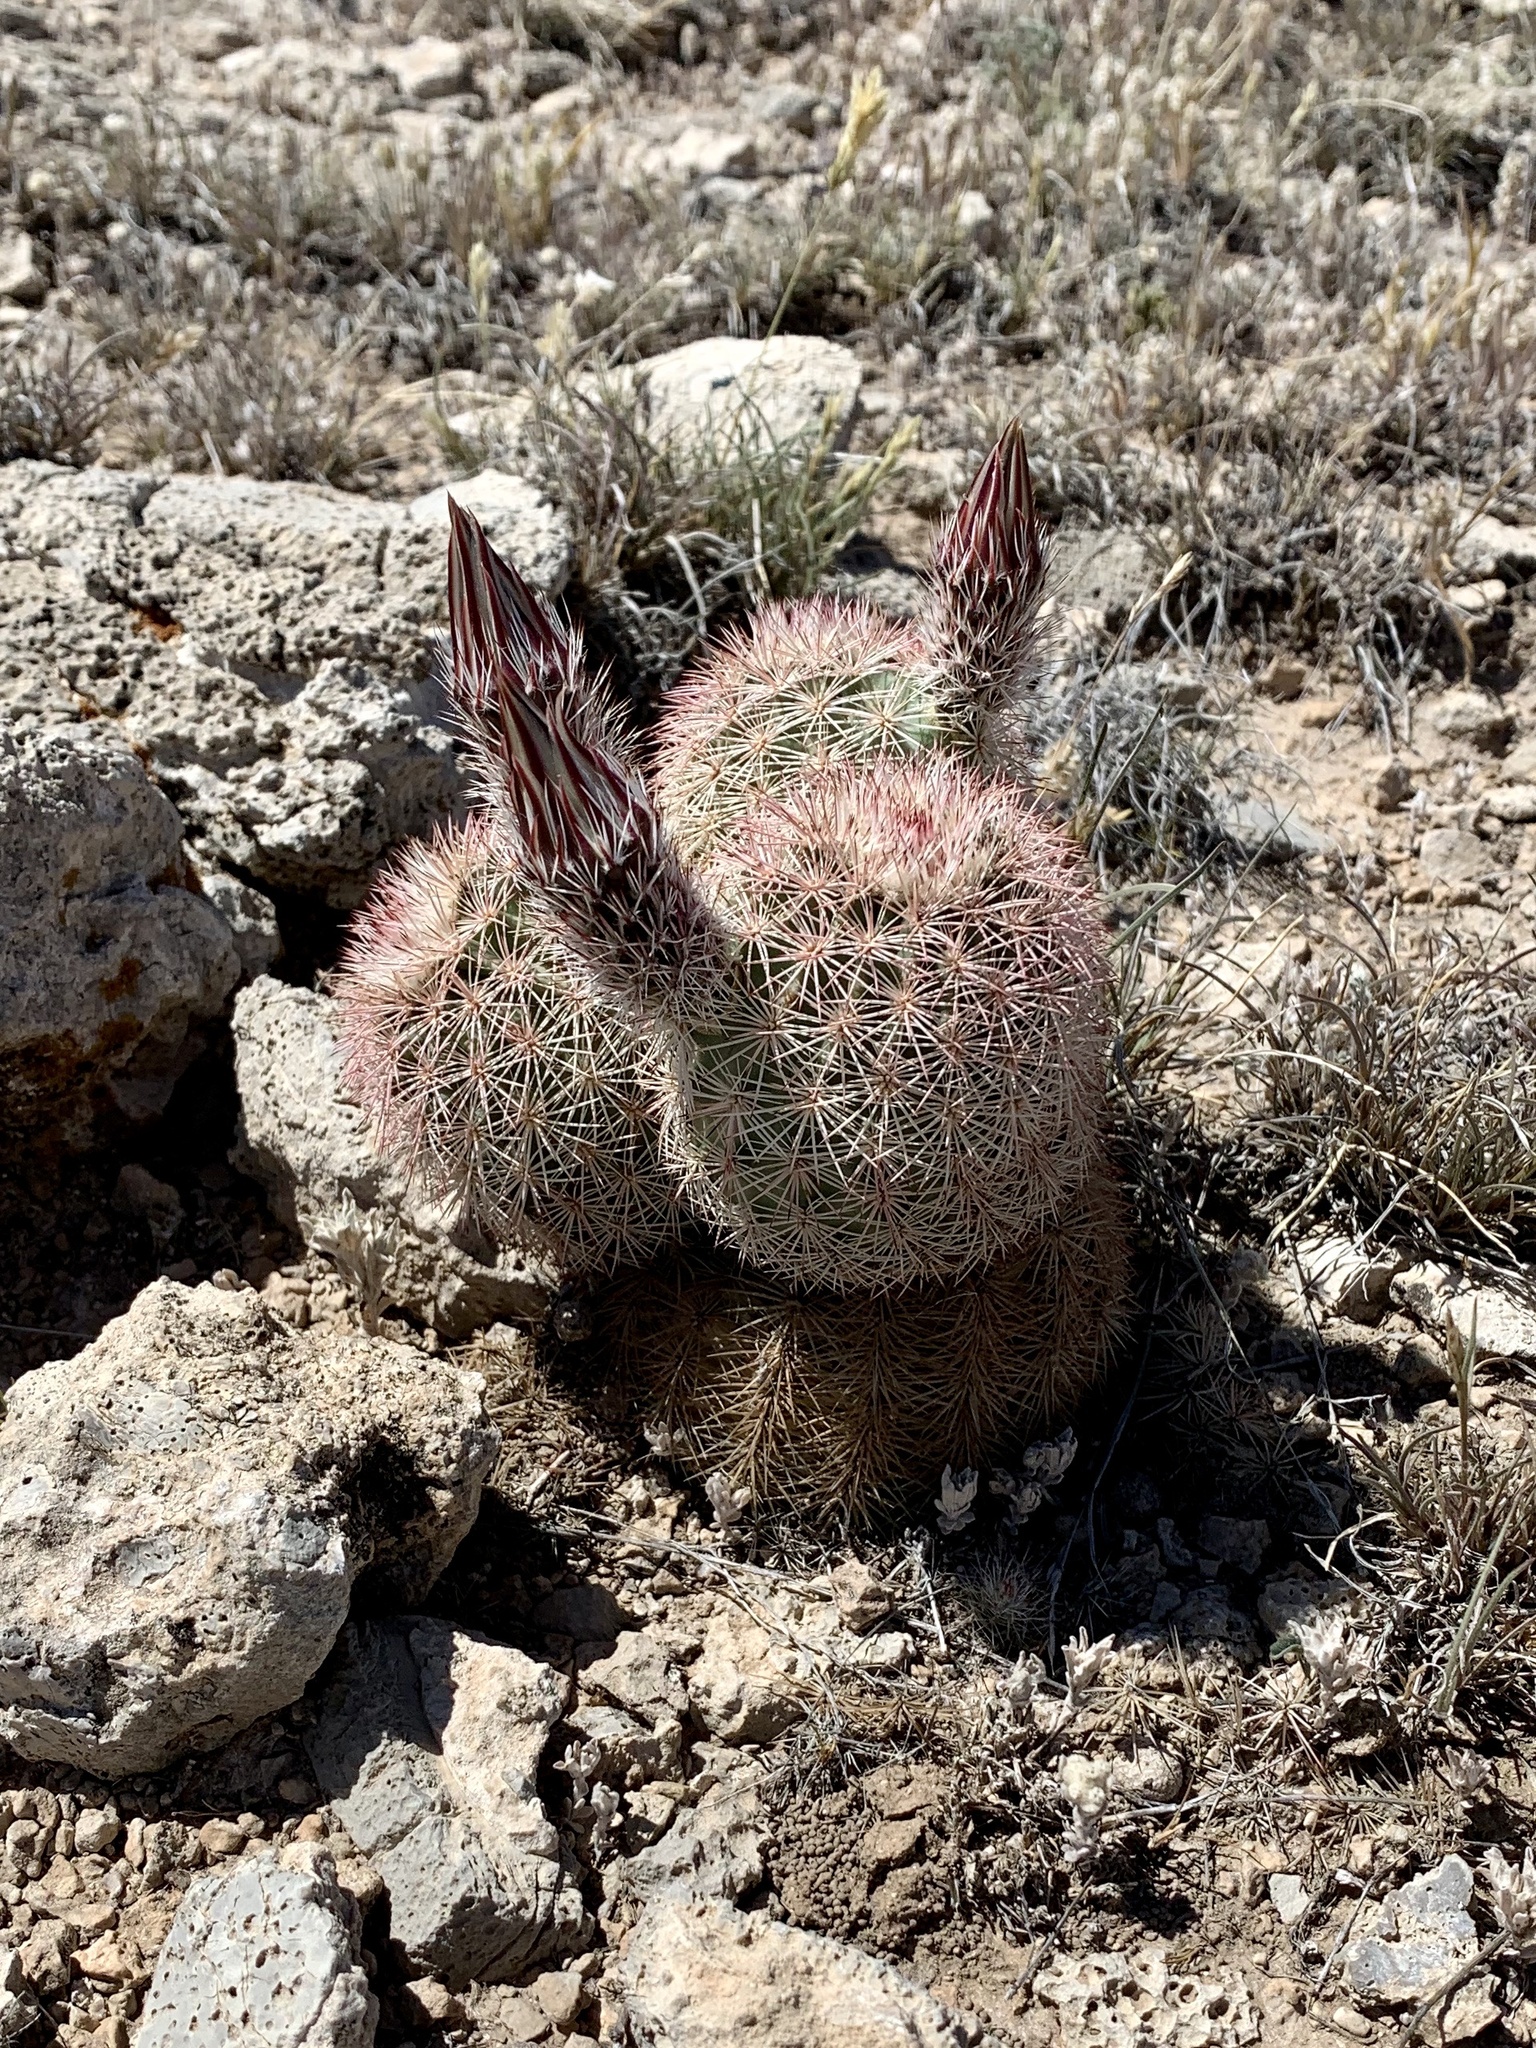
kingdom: Plantae
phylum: Tracheophyta
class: Magnoliopsida
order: Caryophyllales
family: Cactaceae
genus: Echinocereus
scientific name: Echinocereus dasyacanthus
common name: Spiny hedgehog cactus
